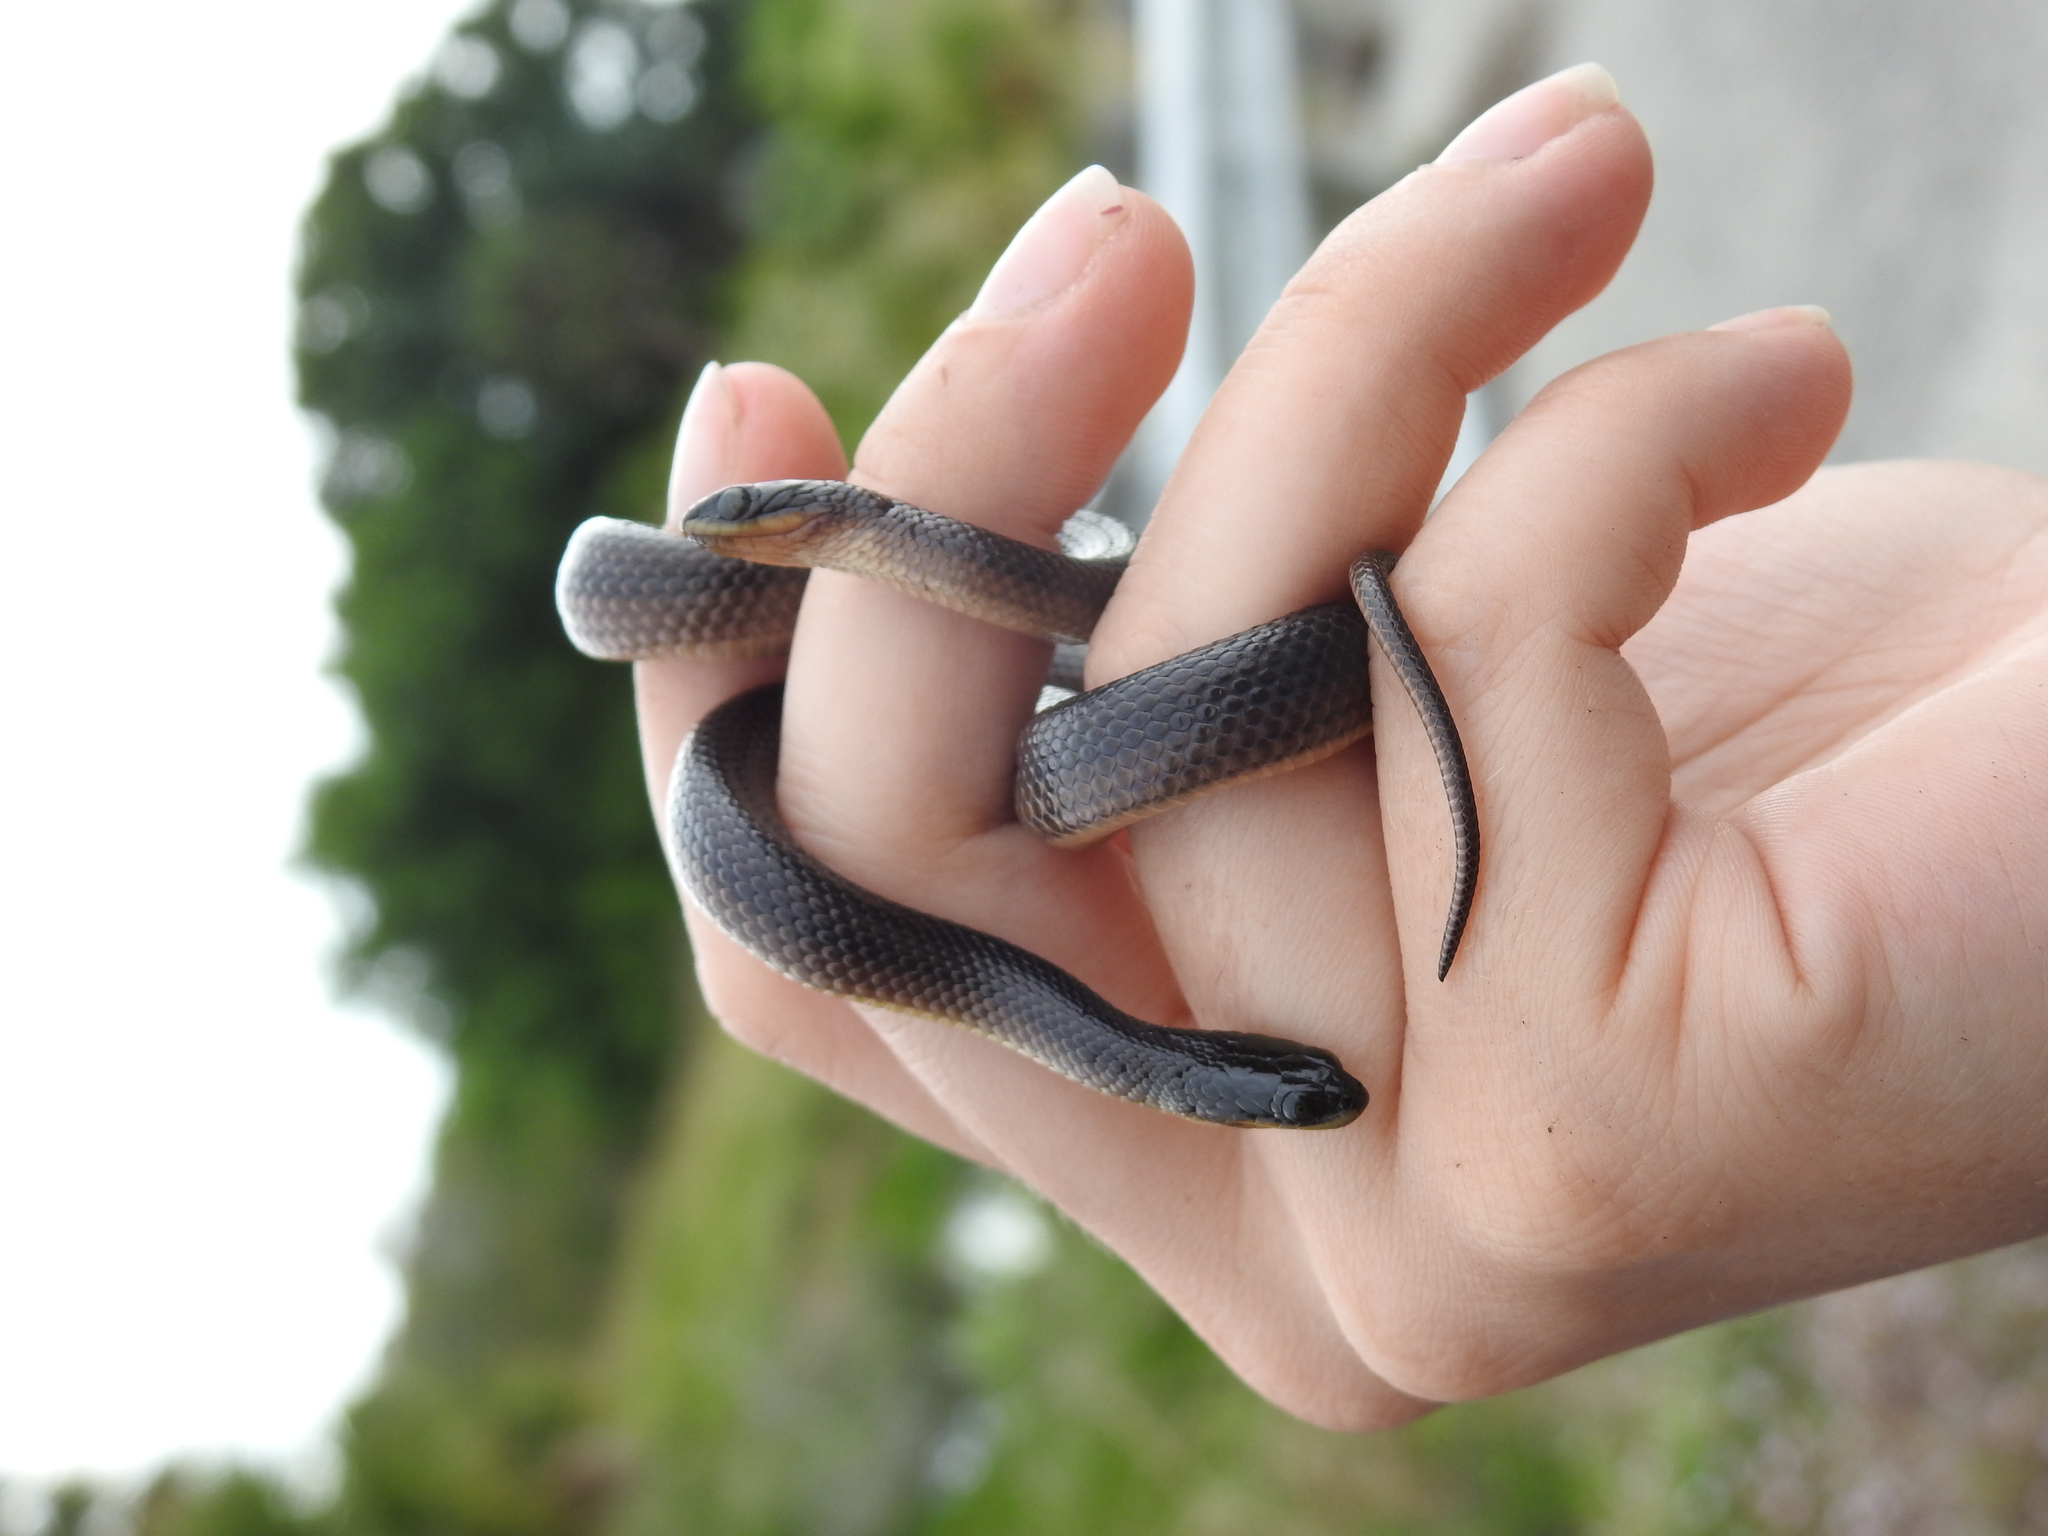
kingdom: Animalia
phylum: Chordata
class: Squamata
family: Colubridae
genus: Liodytes
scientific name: Liodytes alleni
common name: Striped crayfish snake
